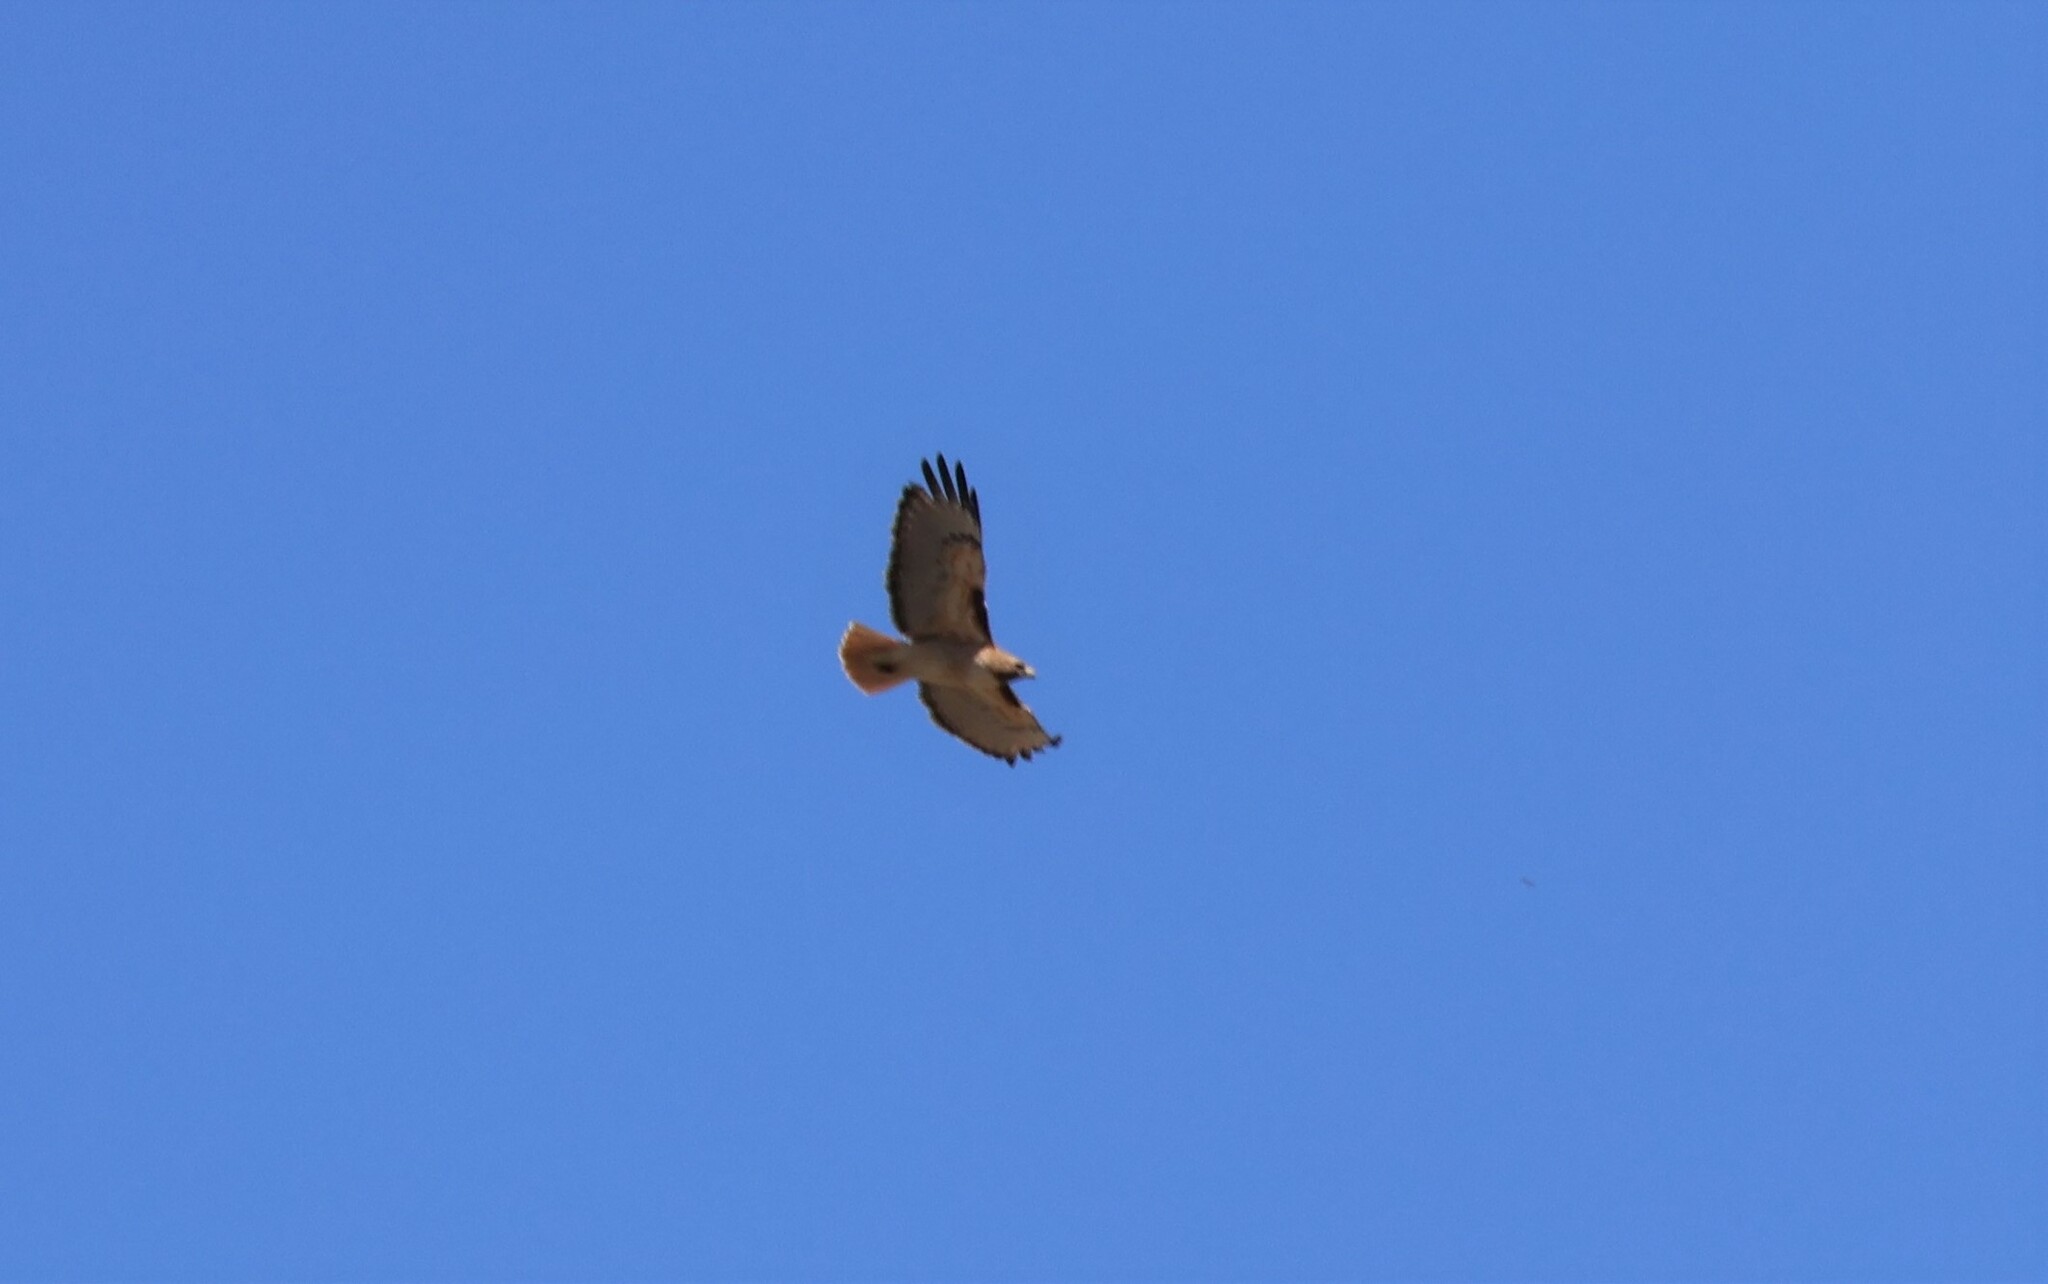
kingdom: Animalia
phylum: Chordata
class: Aves
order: Accipitriformes
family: Accipitridae
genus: Buteo
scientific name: Buteo jamaicensis
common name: Red-tailed hawk
